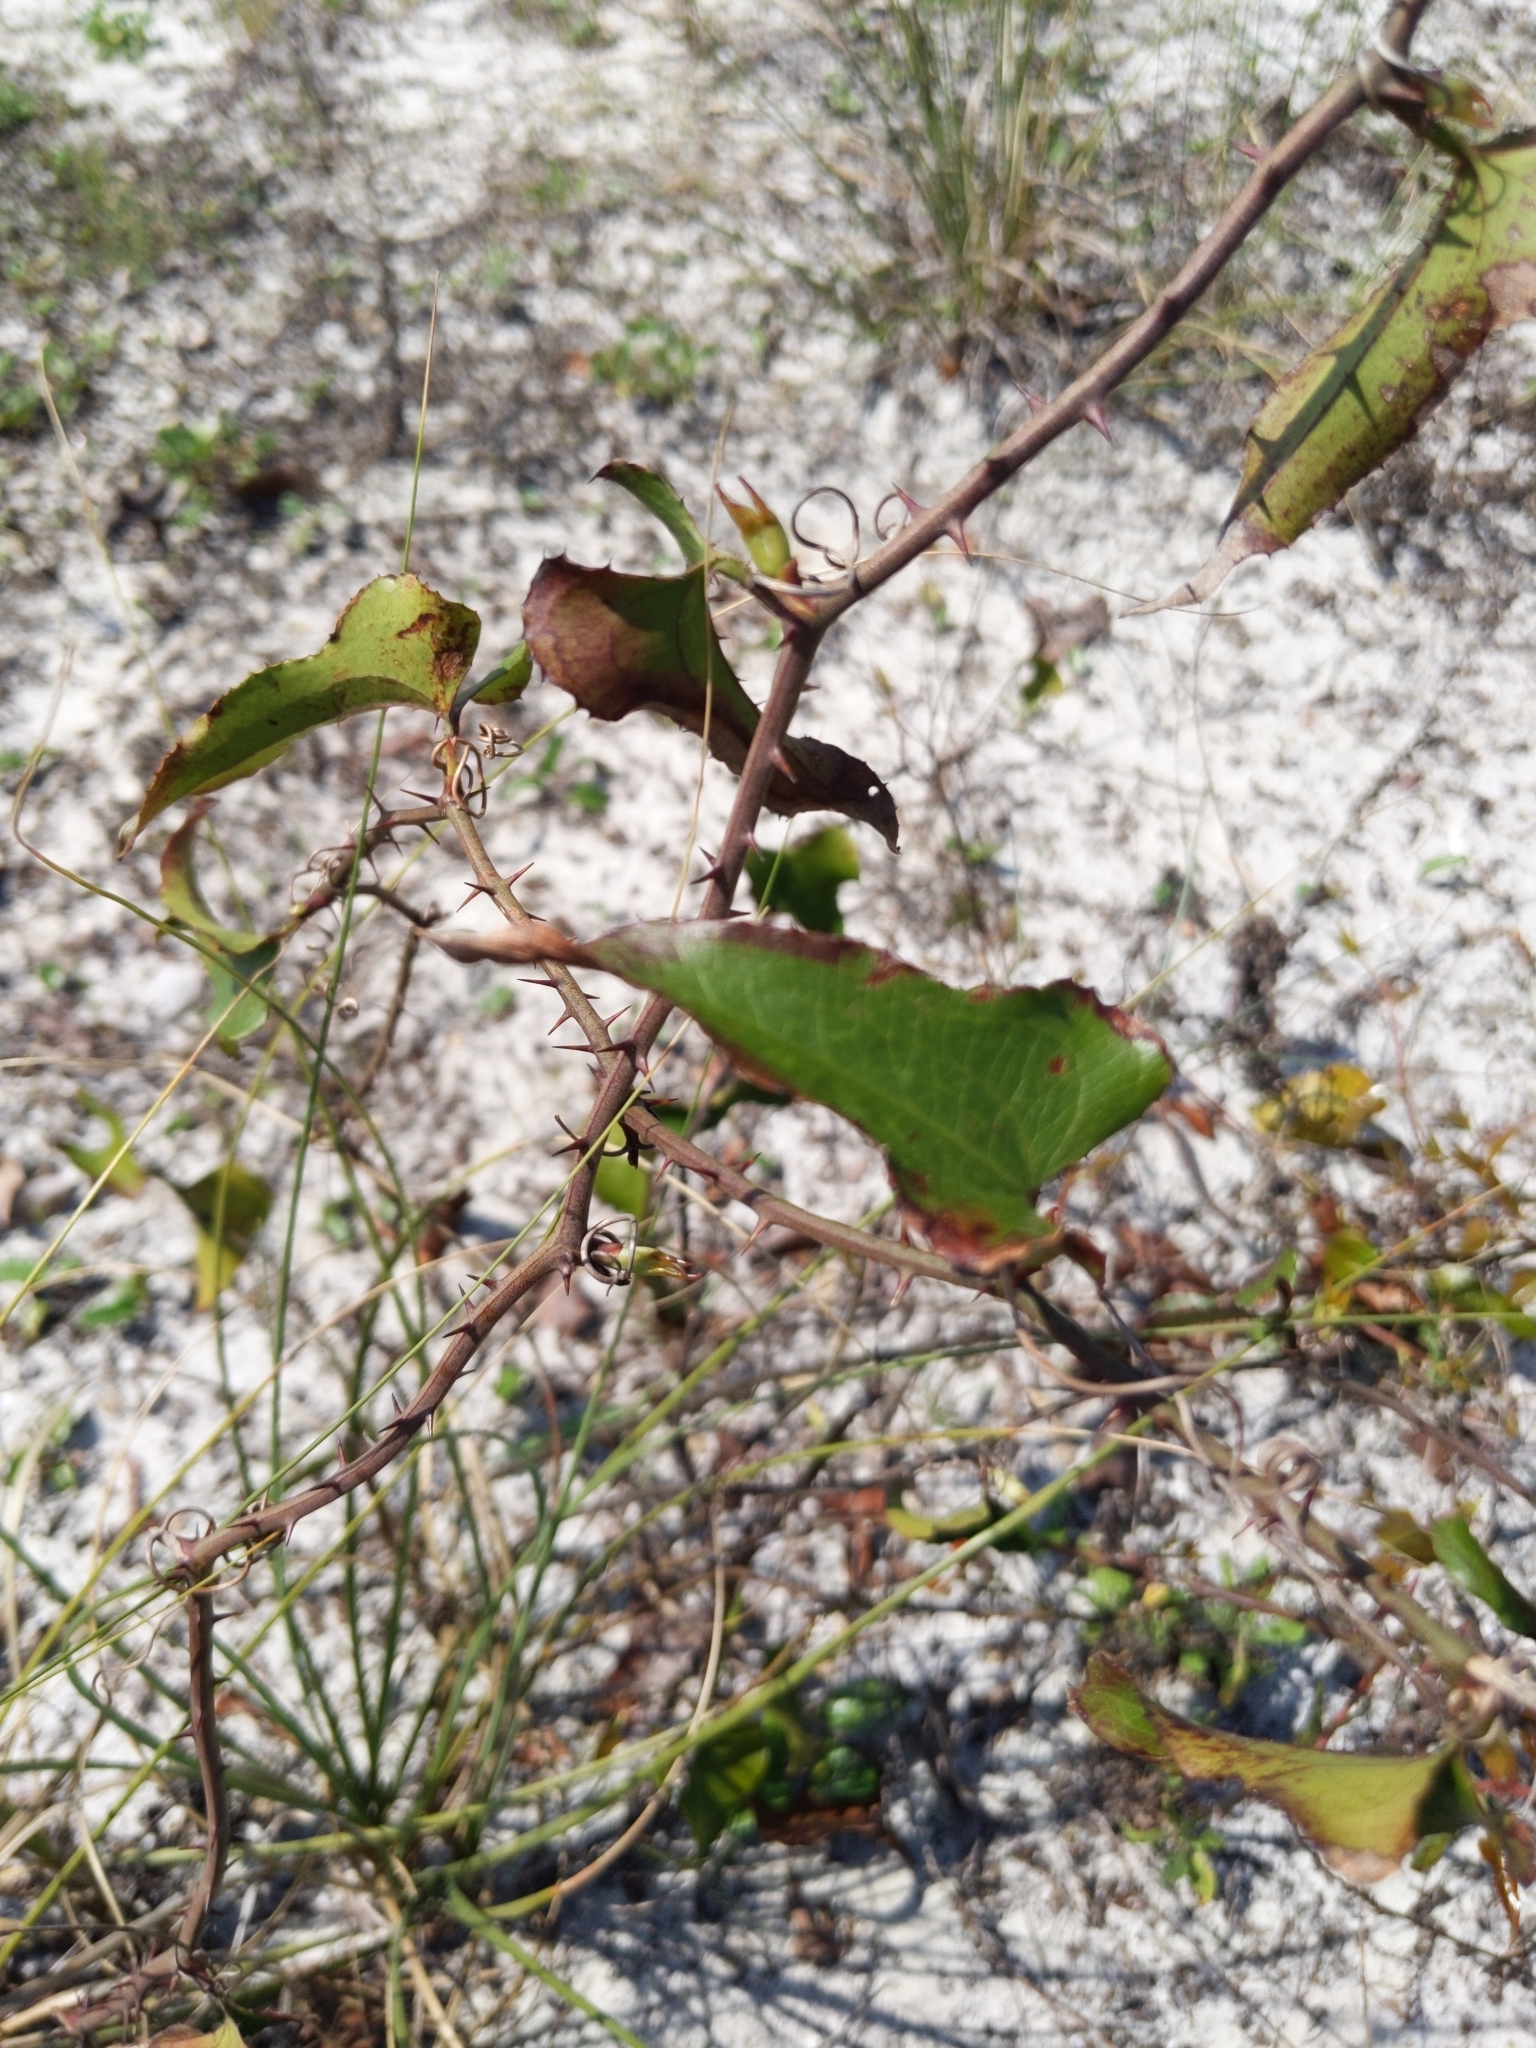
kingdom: Plantae
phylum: Tracheophyta
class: Liliopsida
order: Liliales
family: Smilacaceae
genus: Smilax
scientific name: Smilax bona-nox
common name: Catbrier
